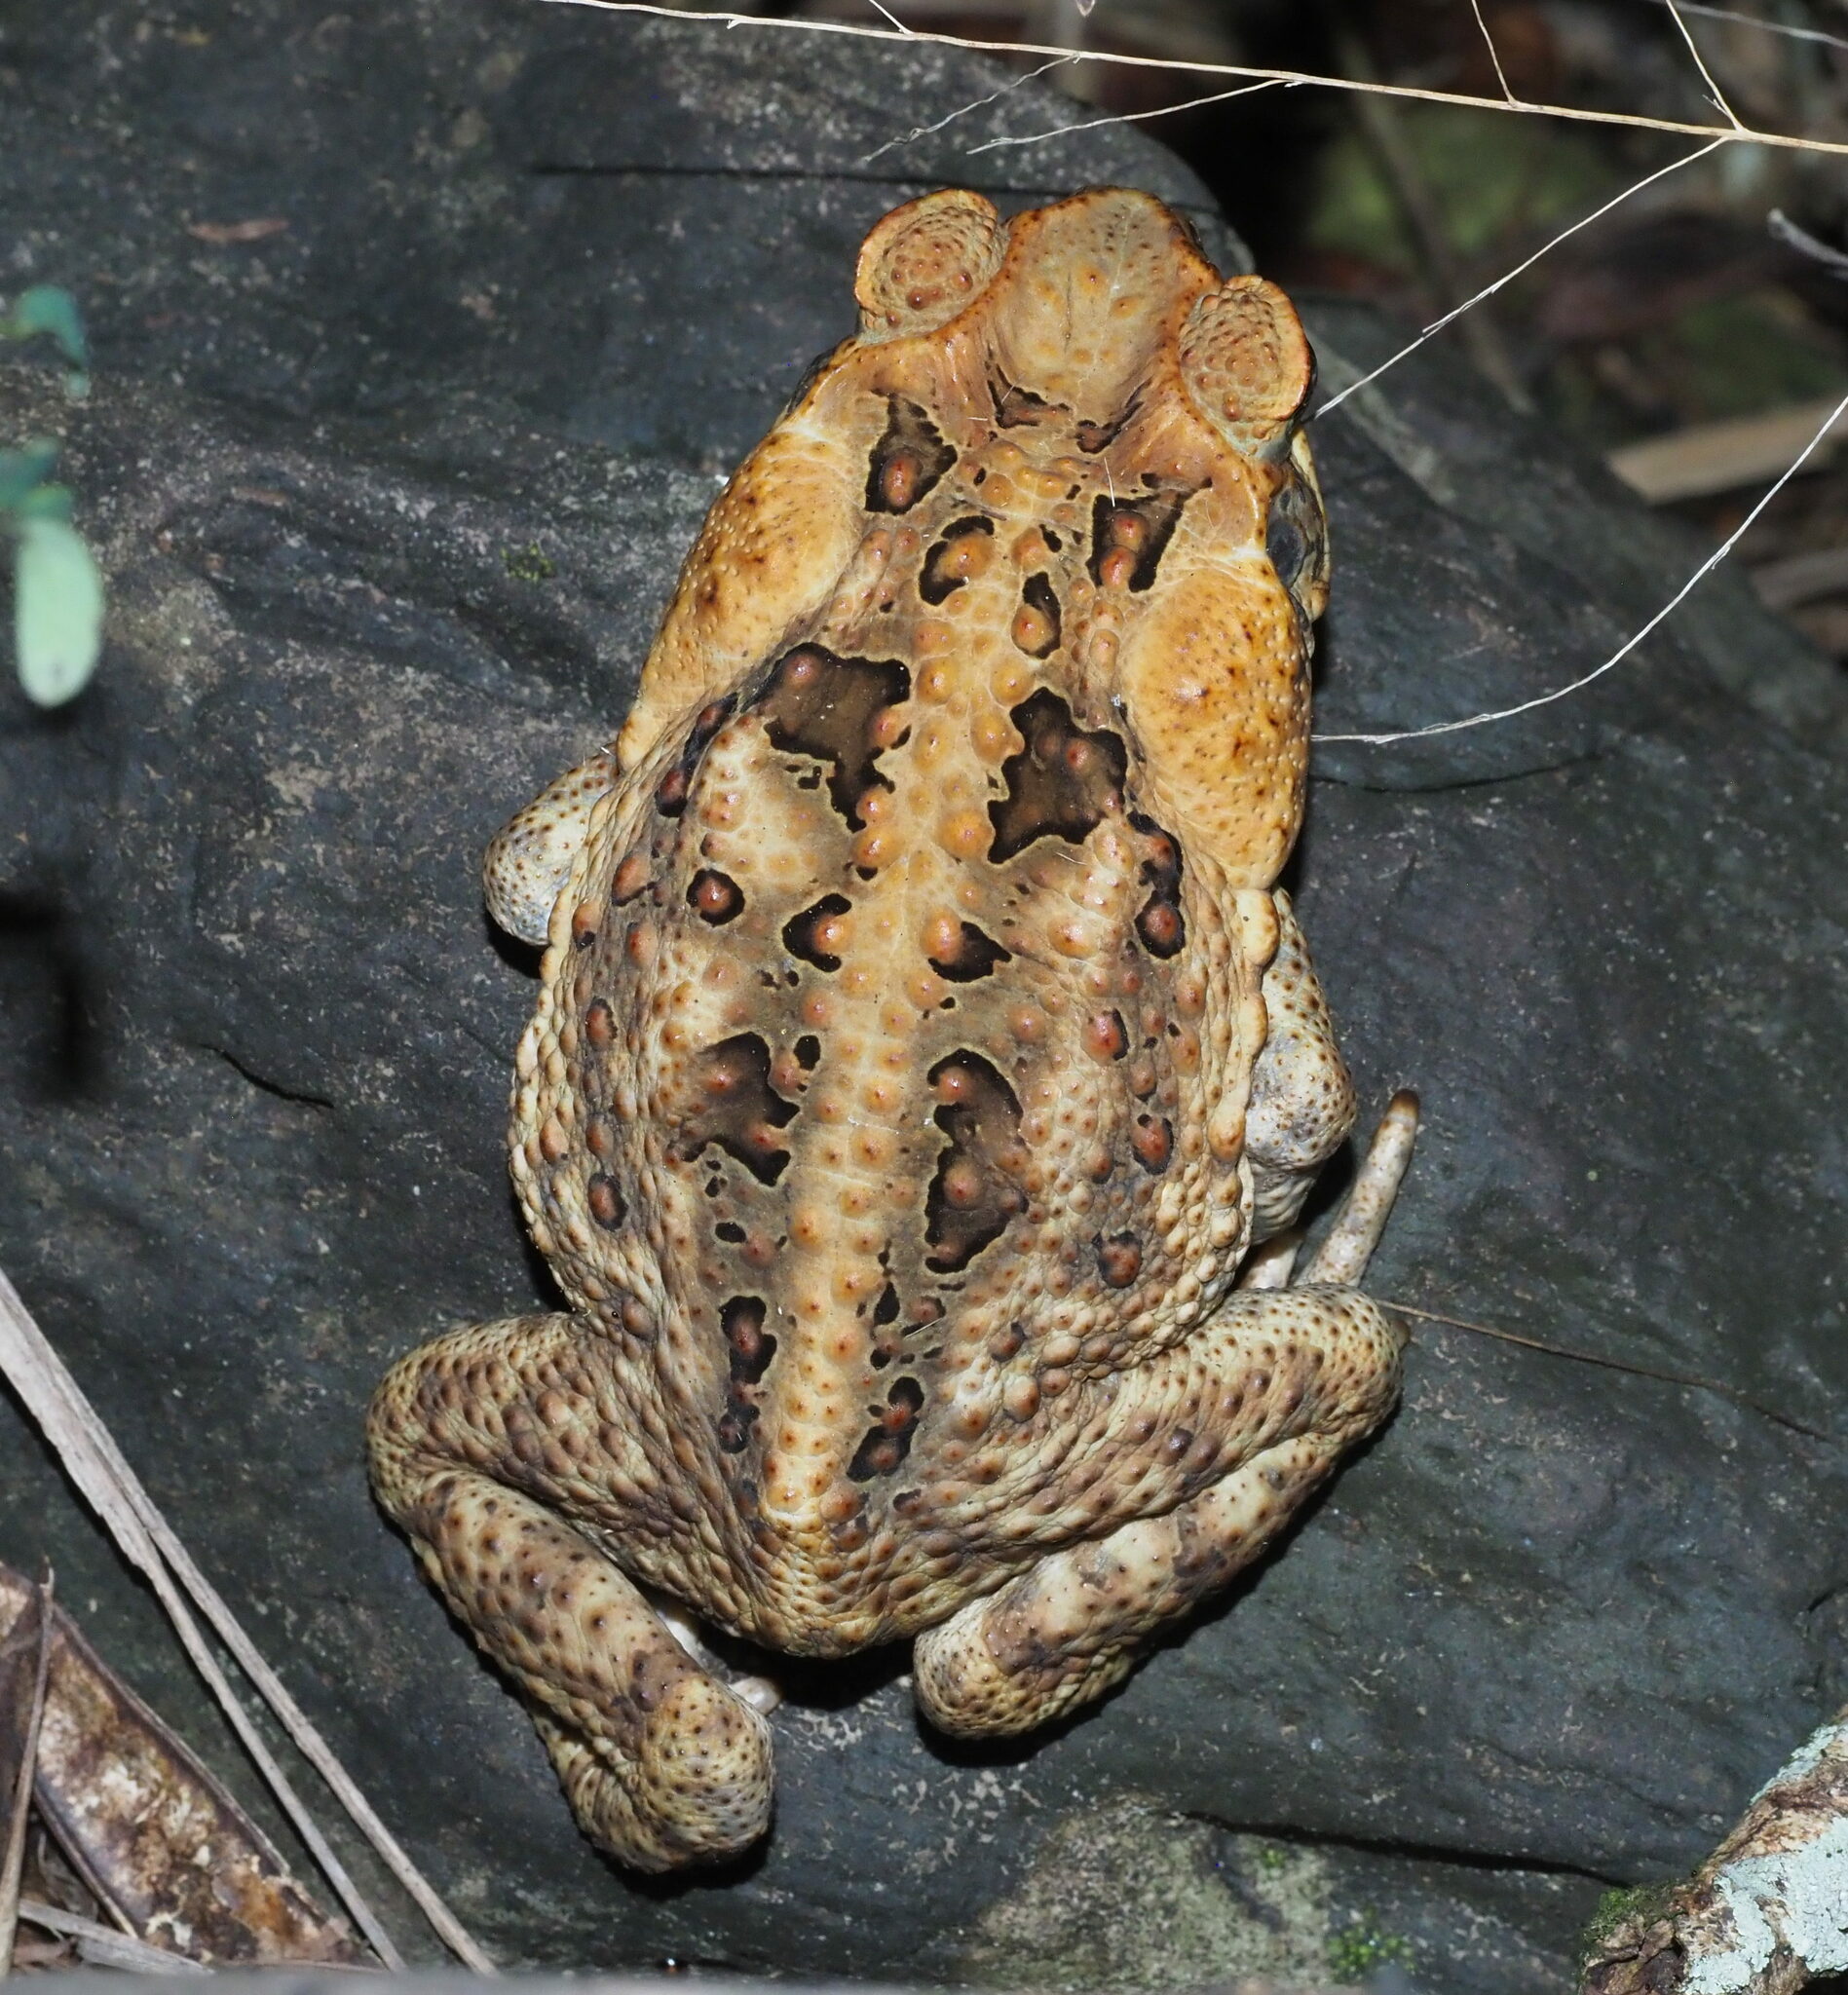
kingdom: Animalia
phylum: Chordata
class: Amphibia
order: Anura
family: Bufonidae
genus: Rhinella
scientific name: Rhinella marina
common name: Cane toad
